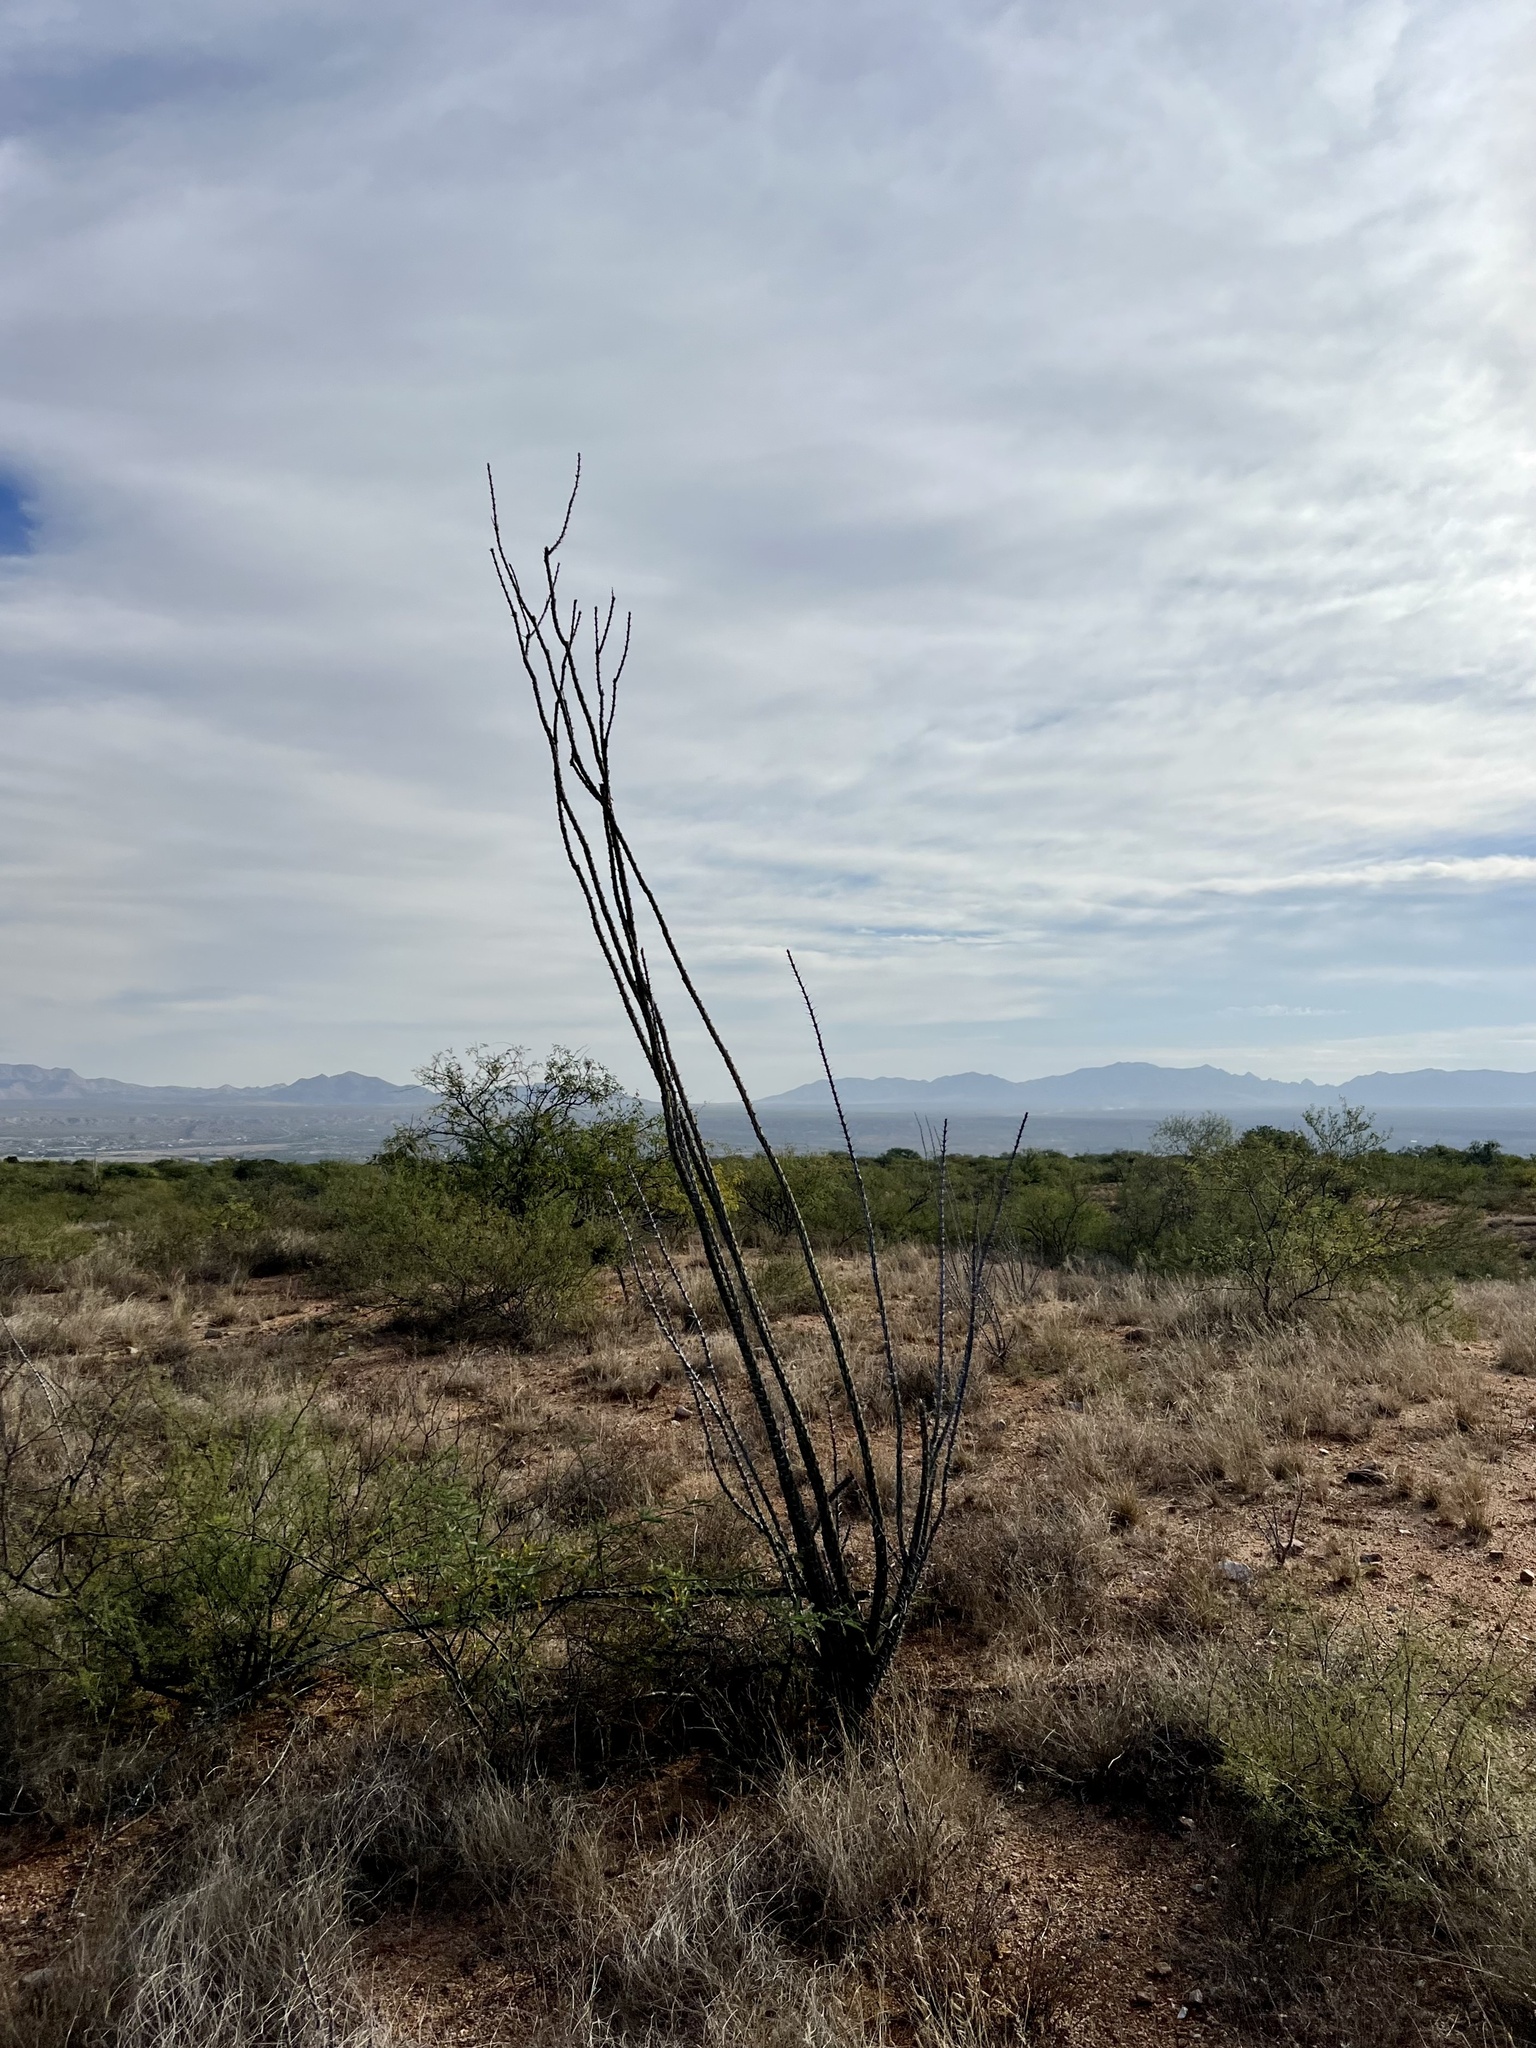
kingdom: Plantae
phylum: Tracheophyta
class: Magnoliopsida
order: Ericales
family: Fouquieriaceae
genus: Fouquieria
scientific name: Fouquieria splendens
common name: Vine-cactus
